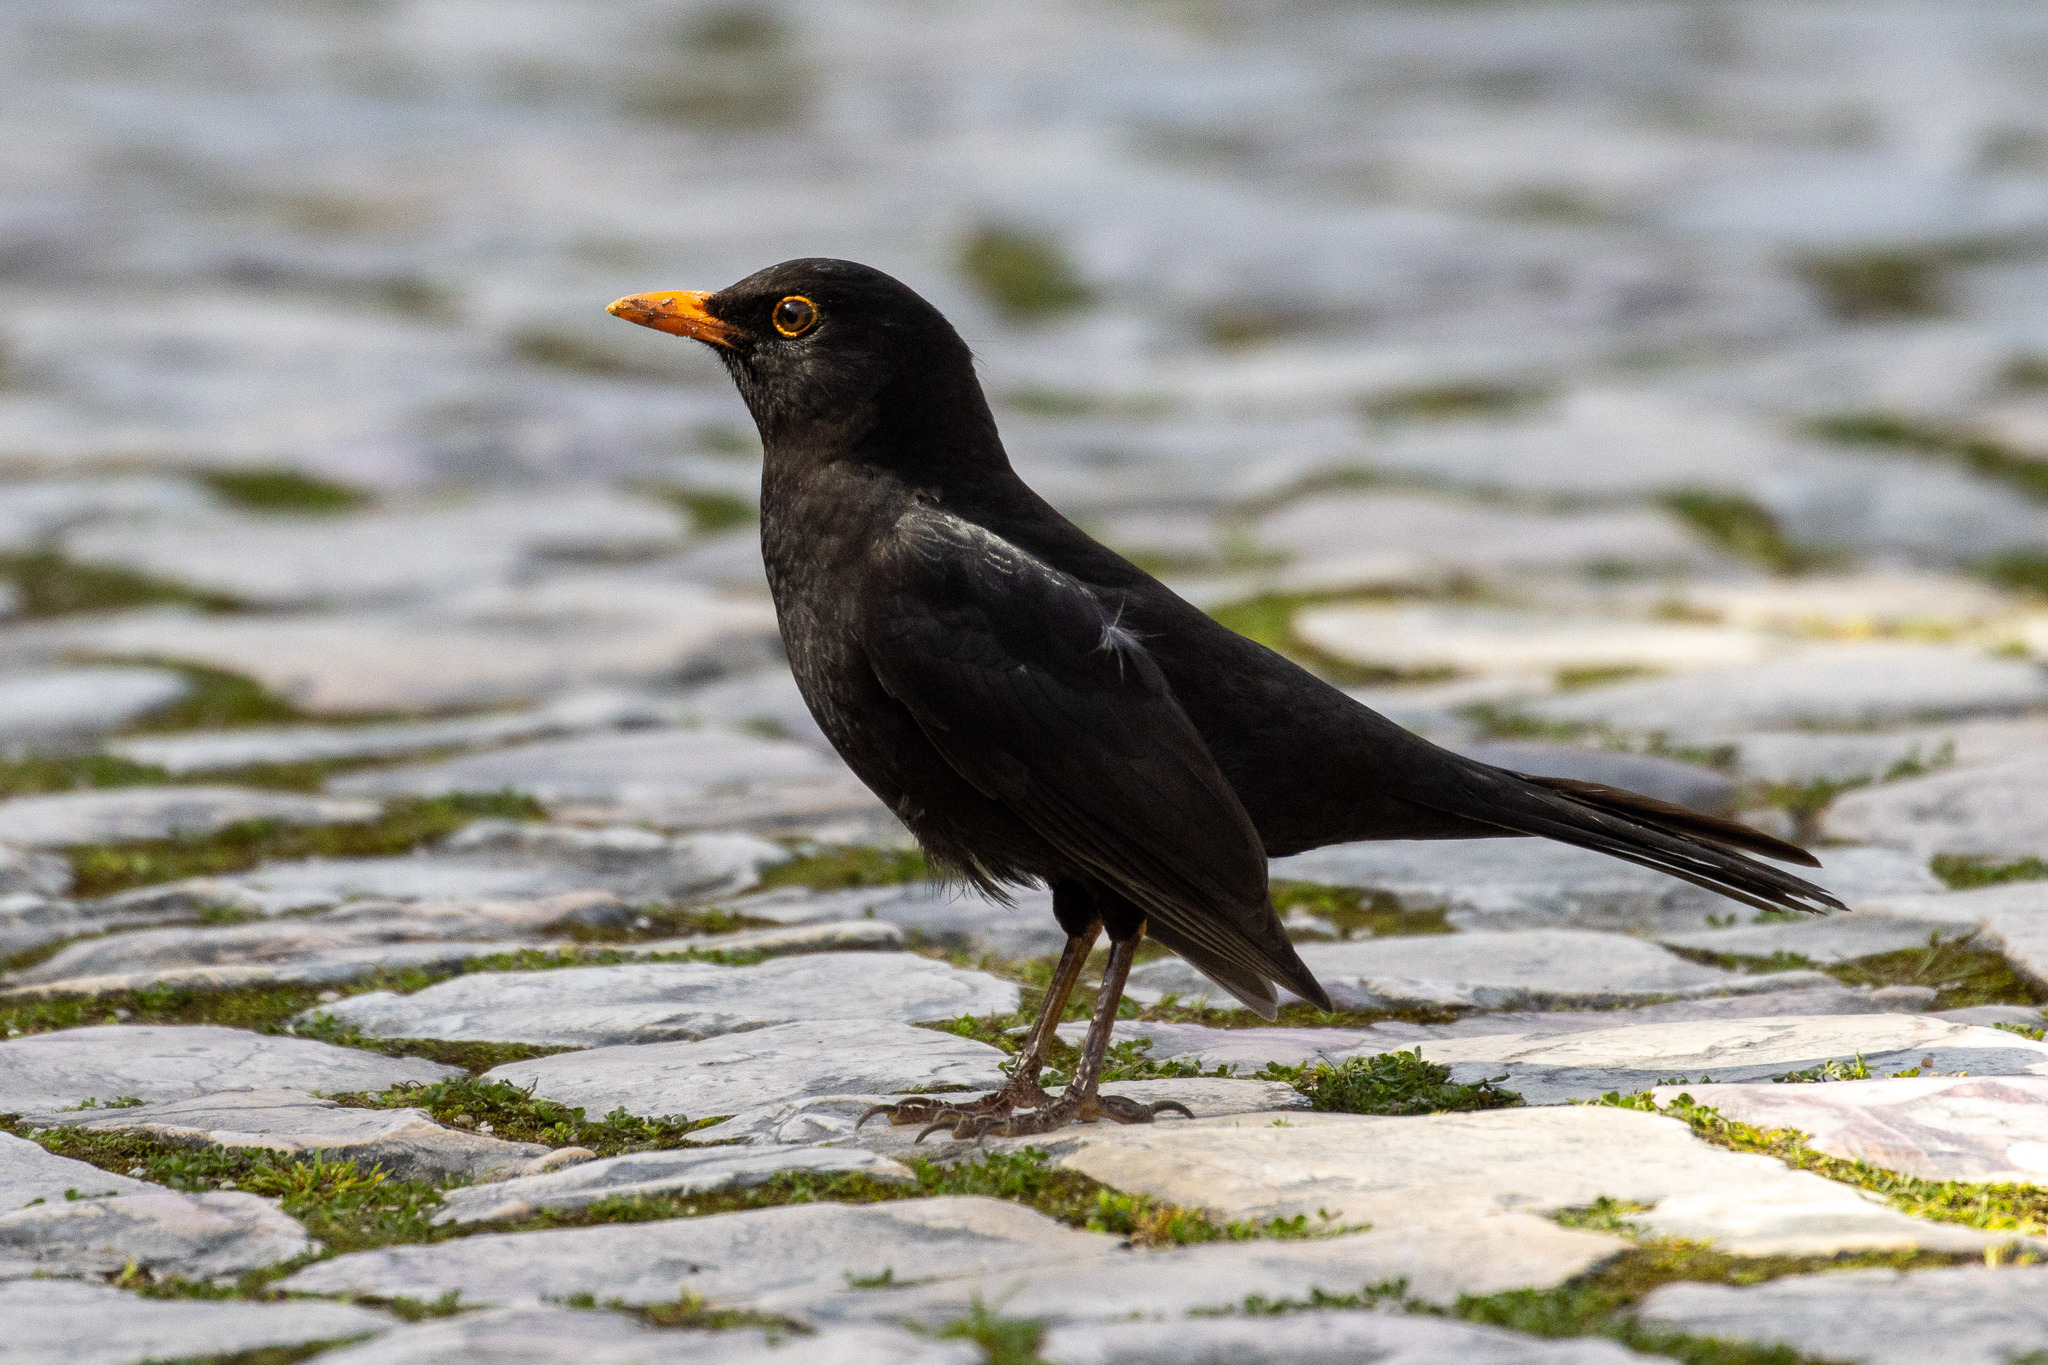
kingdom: Animalia
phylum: Chordata
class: Aves
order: Passeriformes
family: Turdidae
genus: Turdus
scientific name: Turdus merula
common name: Common blackbird
